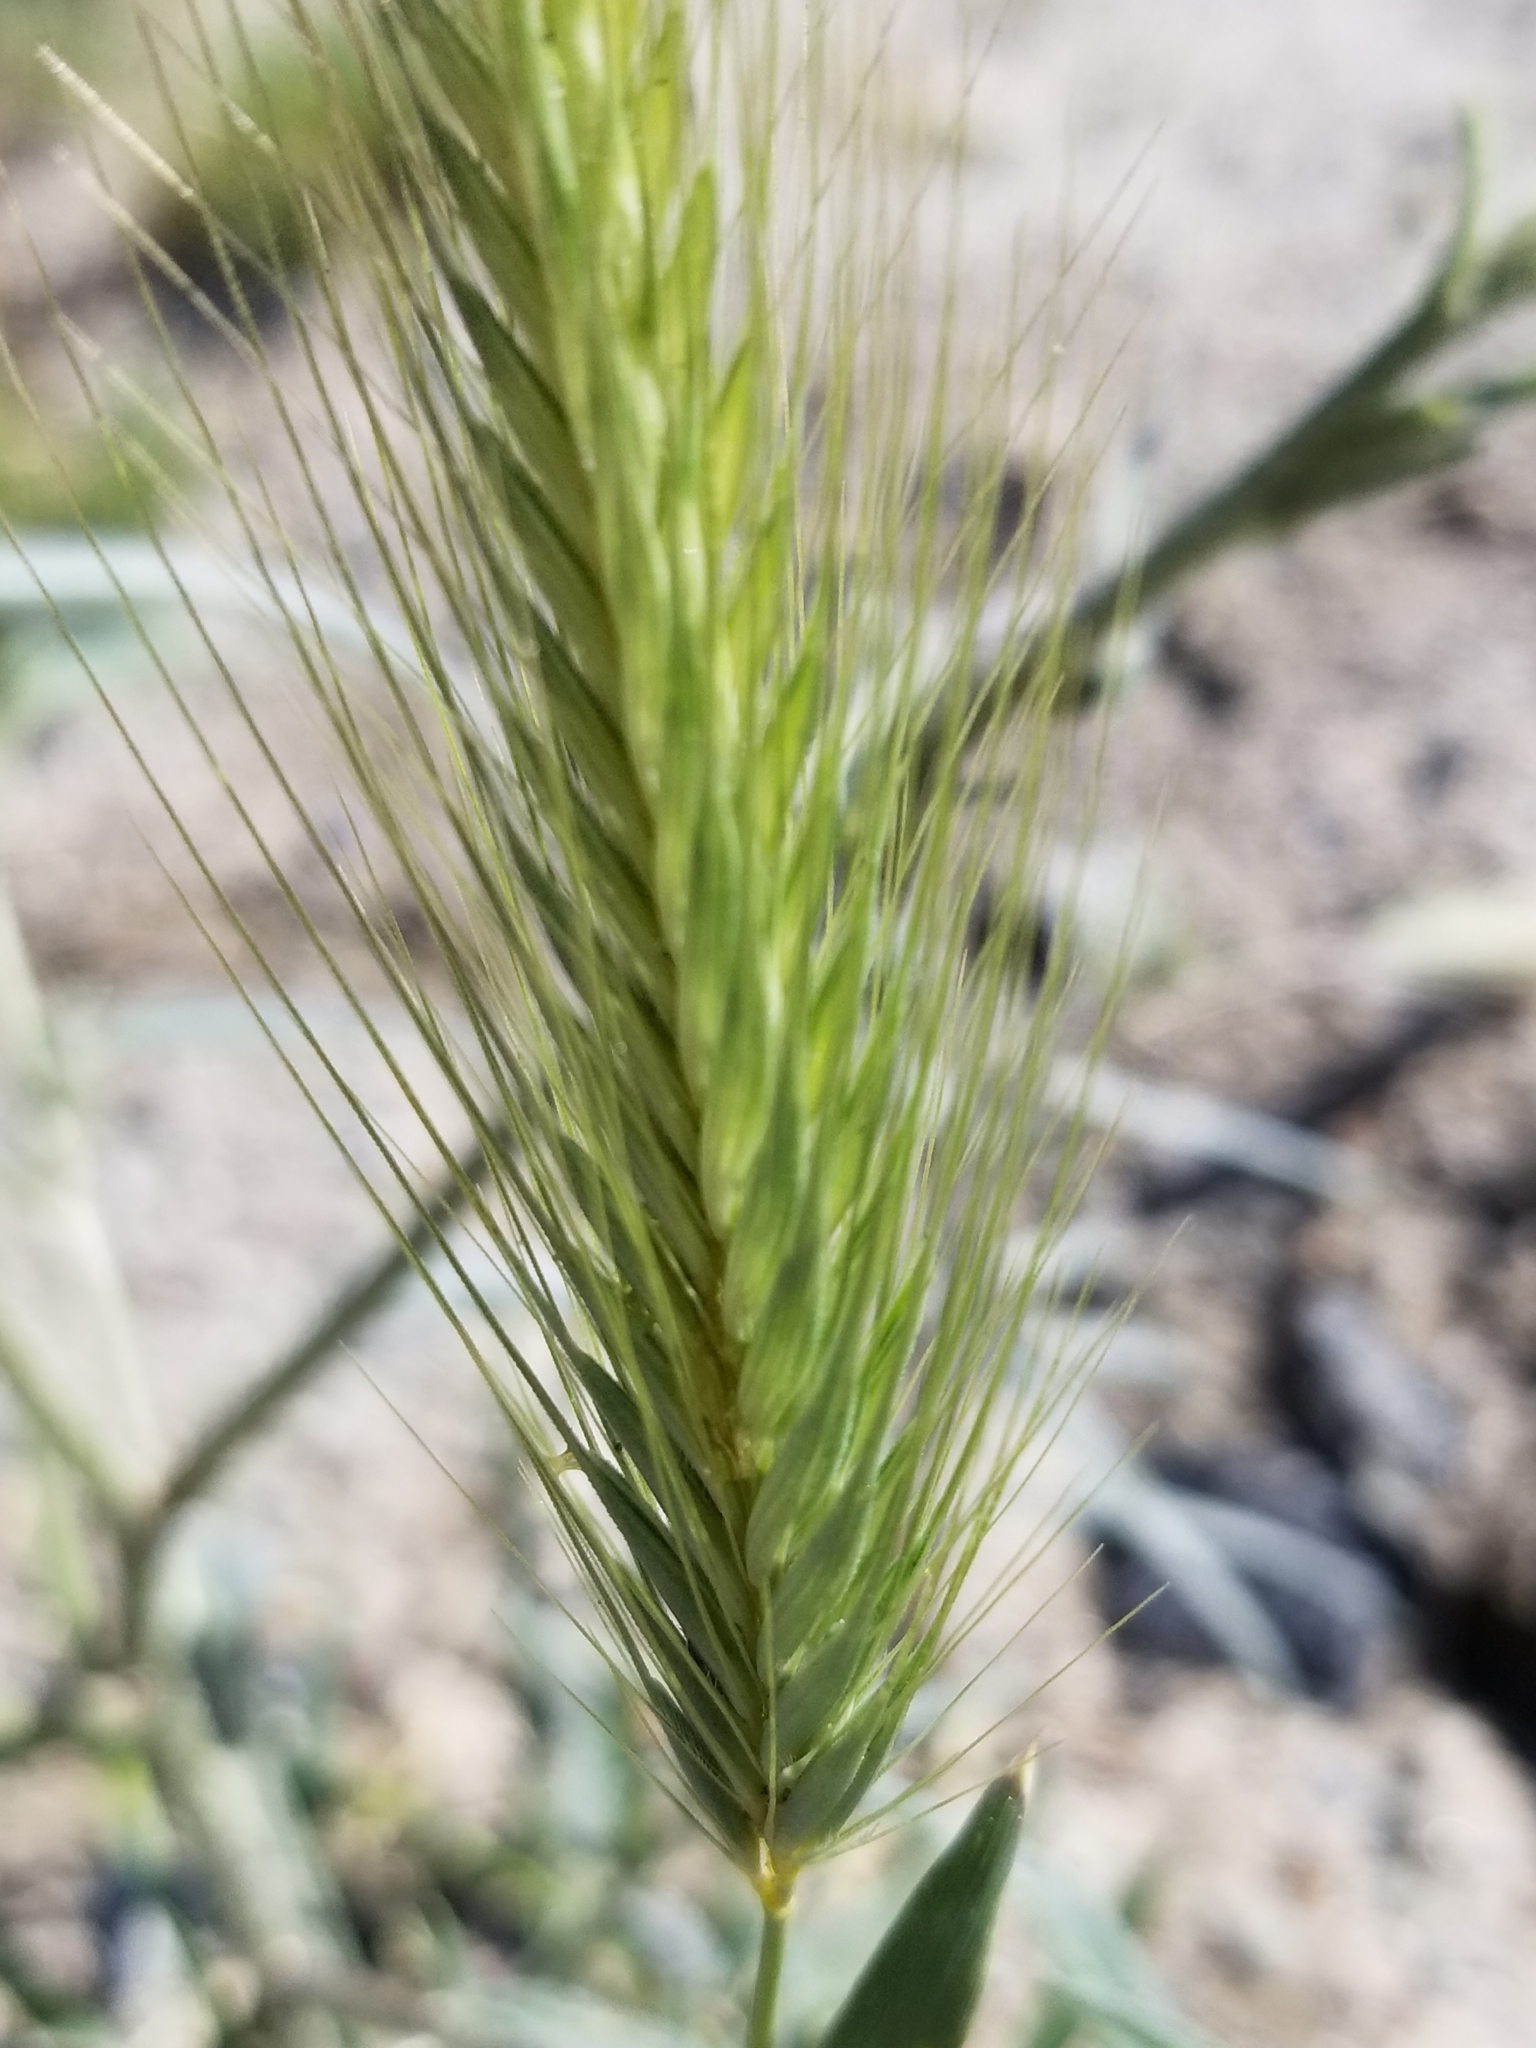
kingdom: Plantae
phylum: Tracheophyta
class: Liliopsida
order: Poales
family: Poaceae
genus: Hordeum
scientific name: Hordeum murinum
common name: Wall barley
